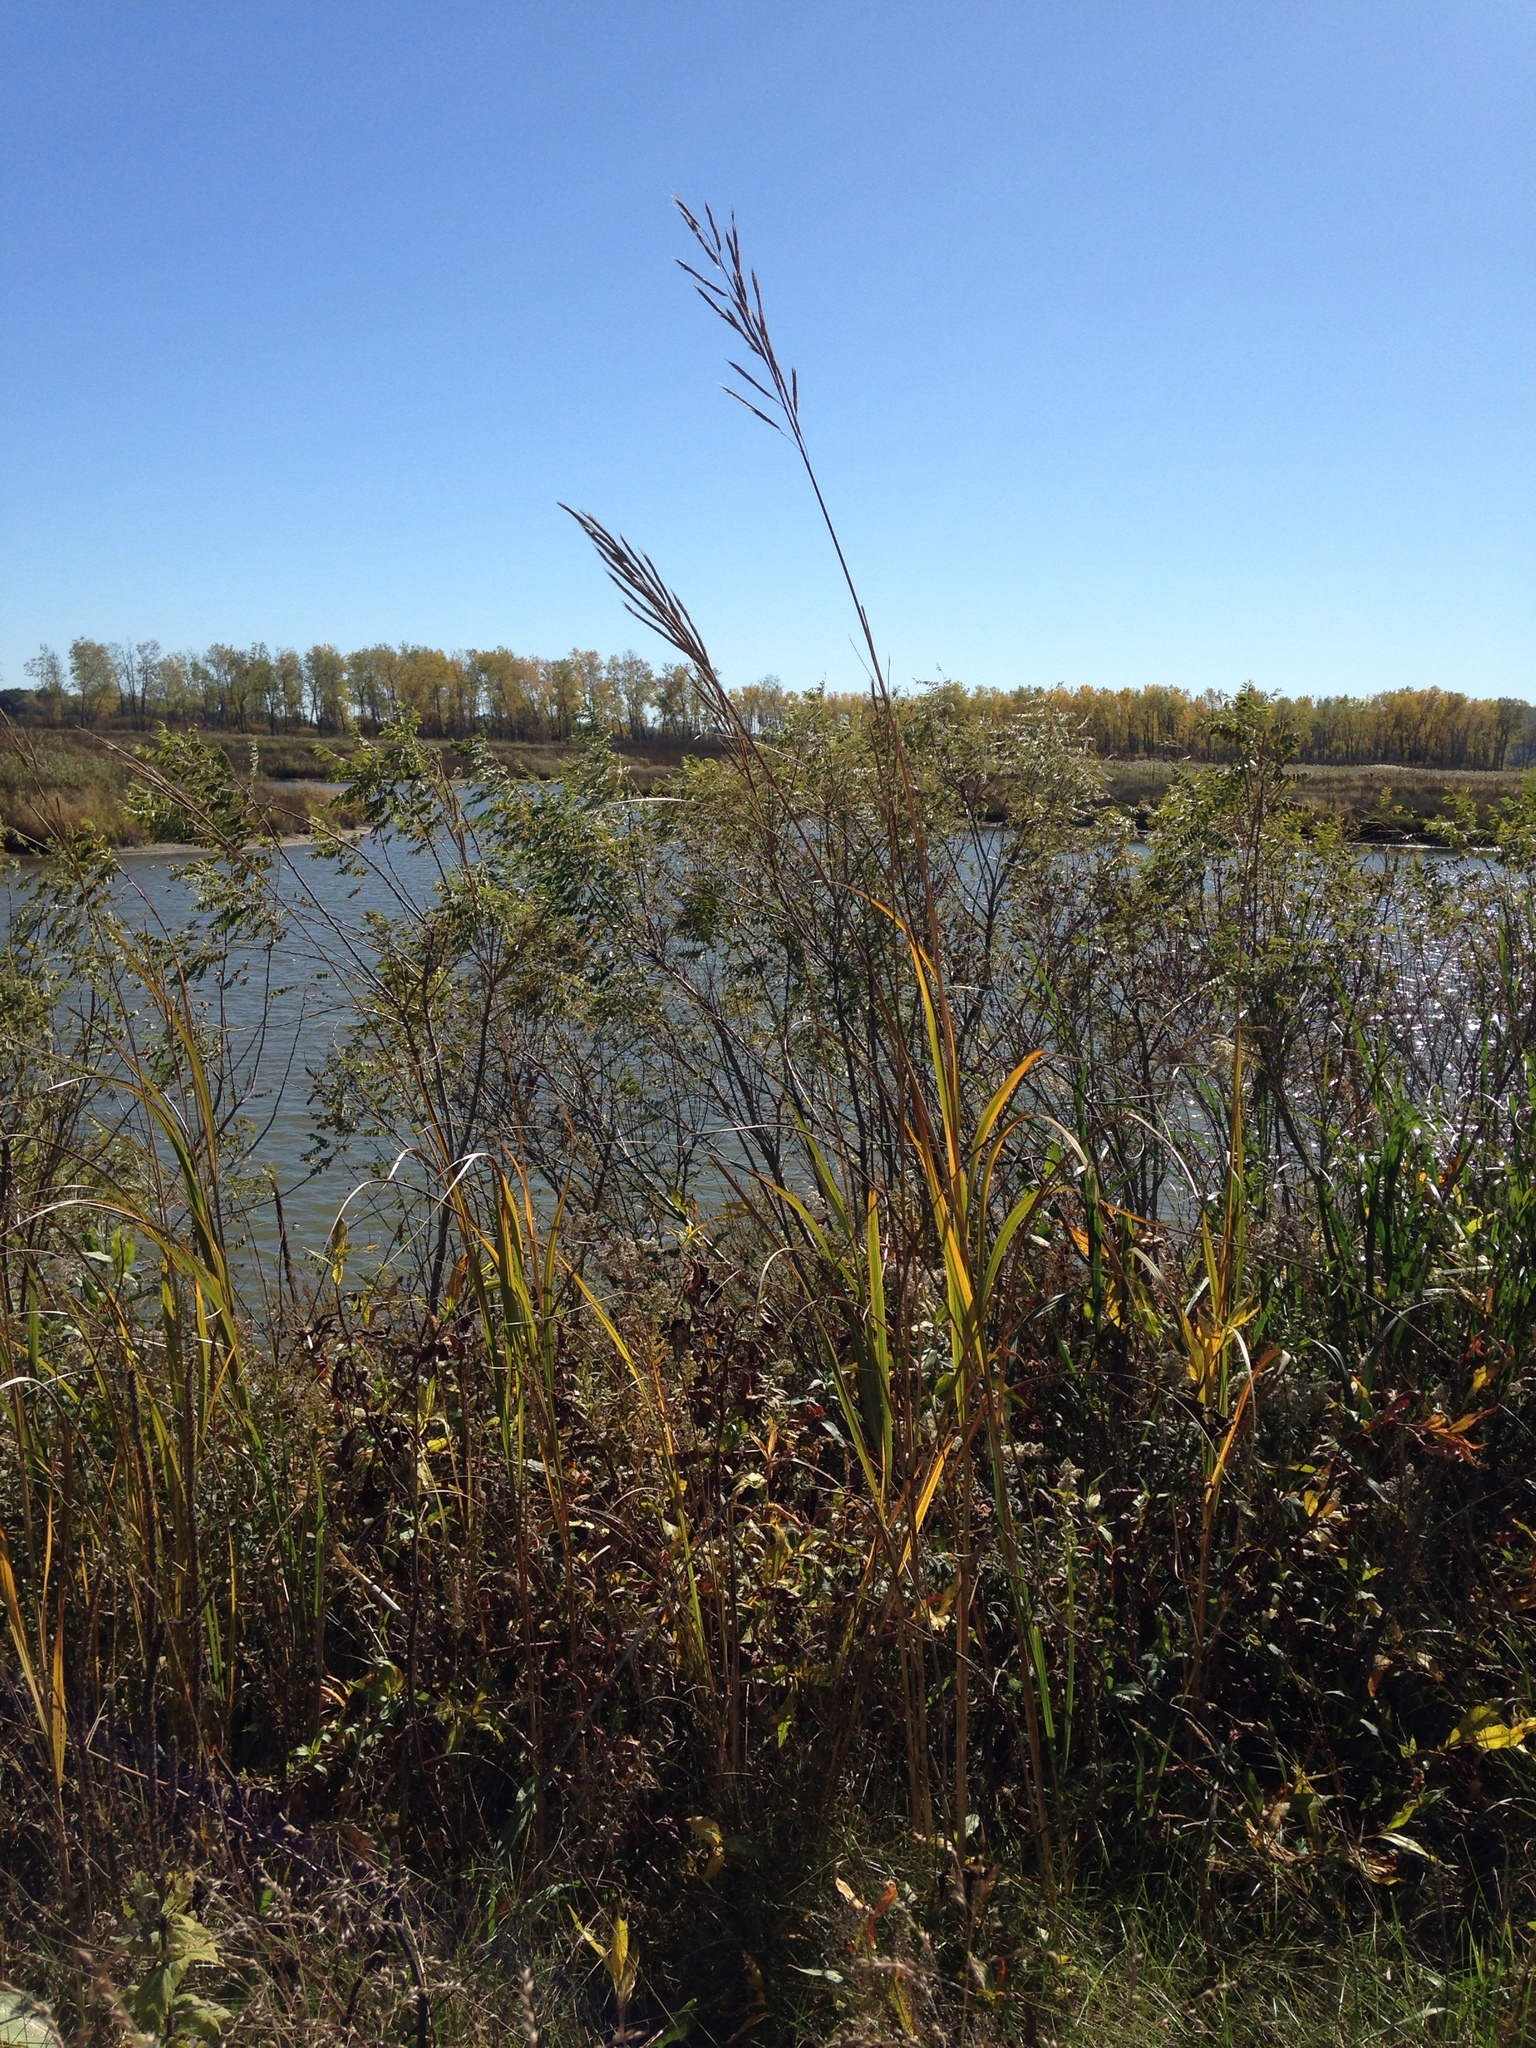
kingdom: Plantae
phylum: Tracheophyta
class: Liliopsida
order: Poales
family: Poaceae
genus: Sporobolus
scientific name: Sporobolus michauxianus
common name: Freshwater cordgrass
